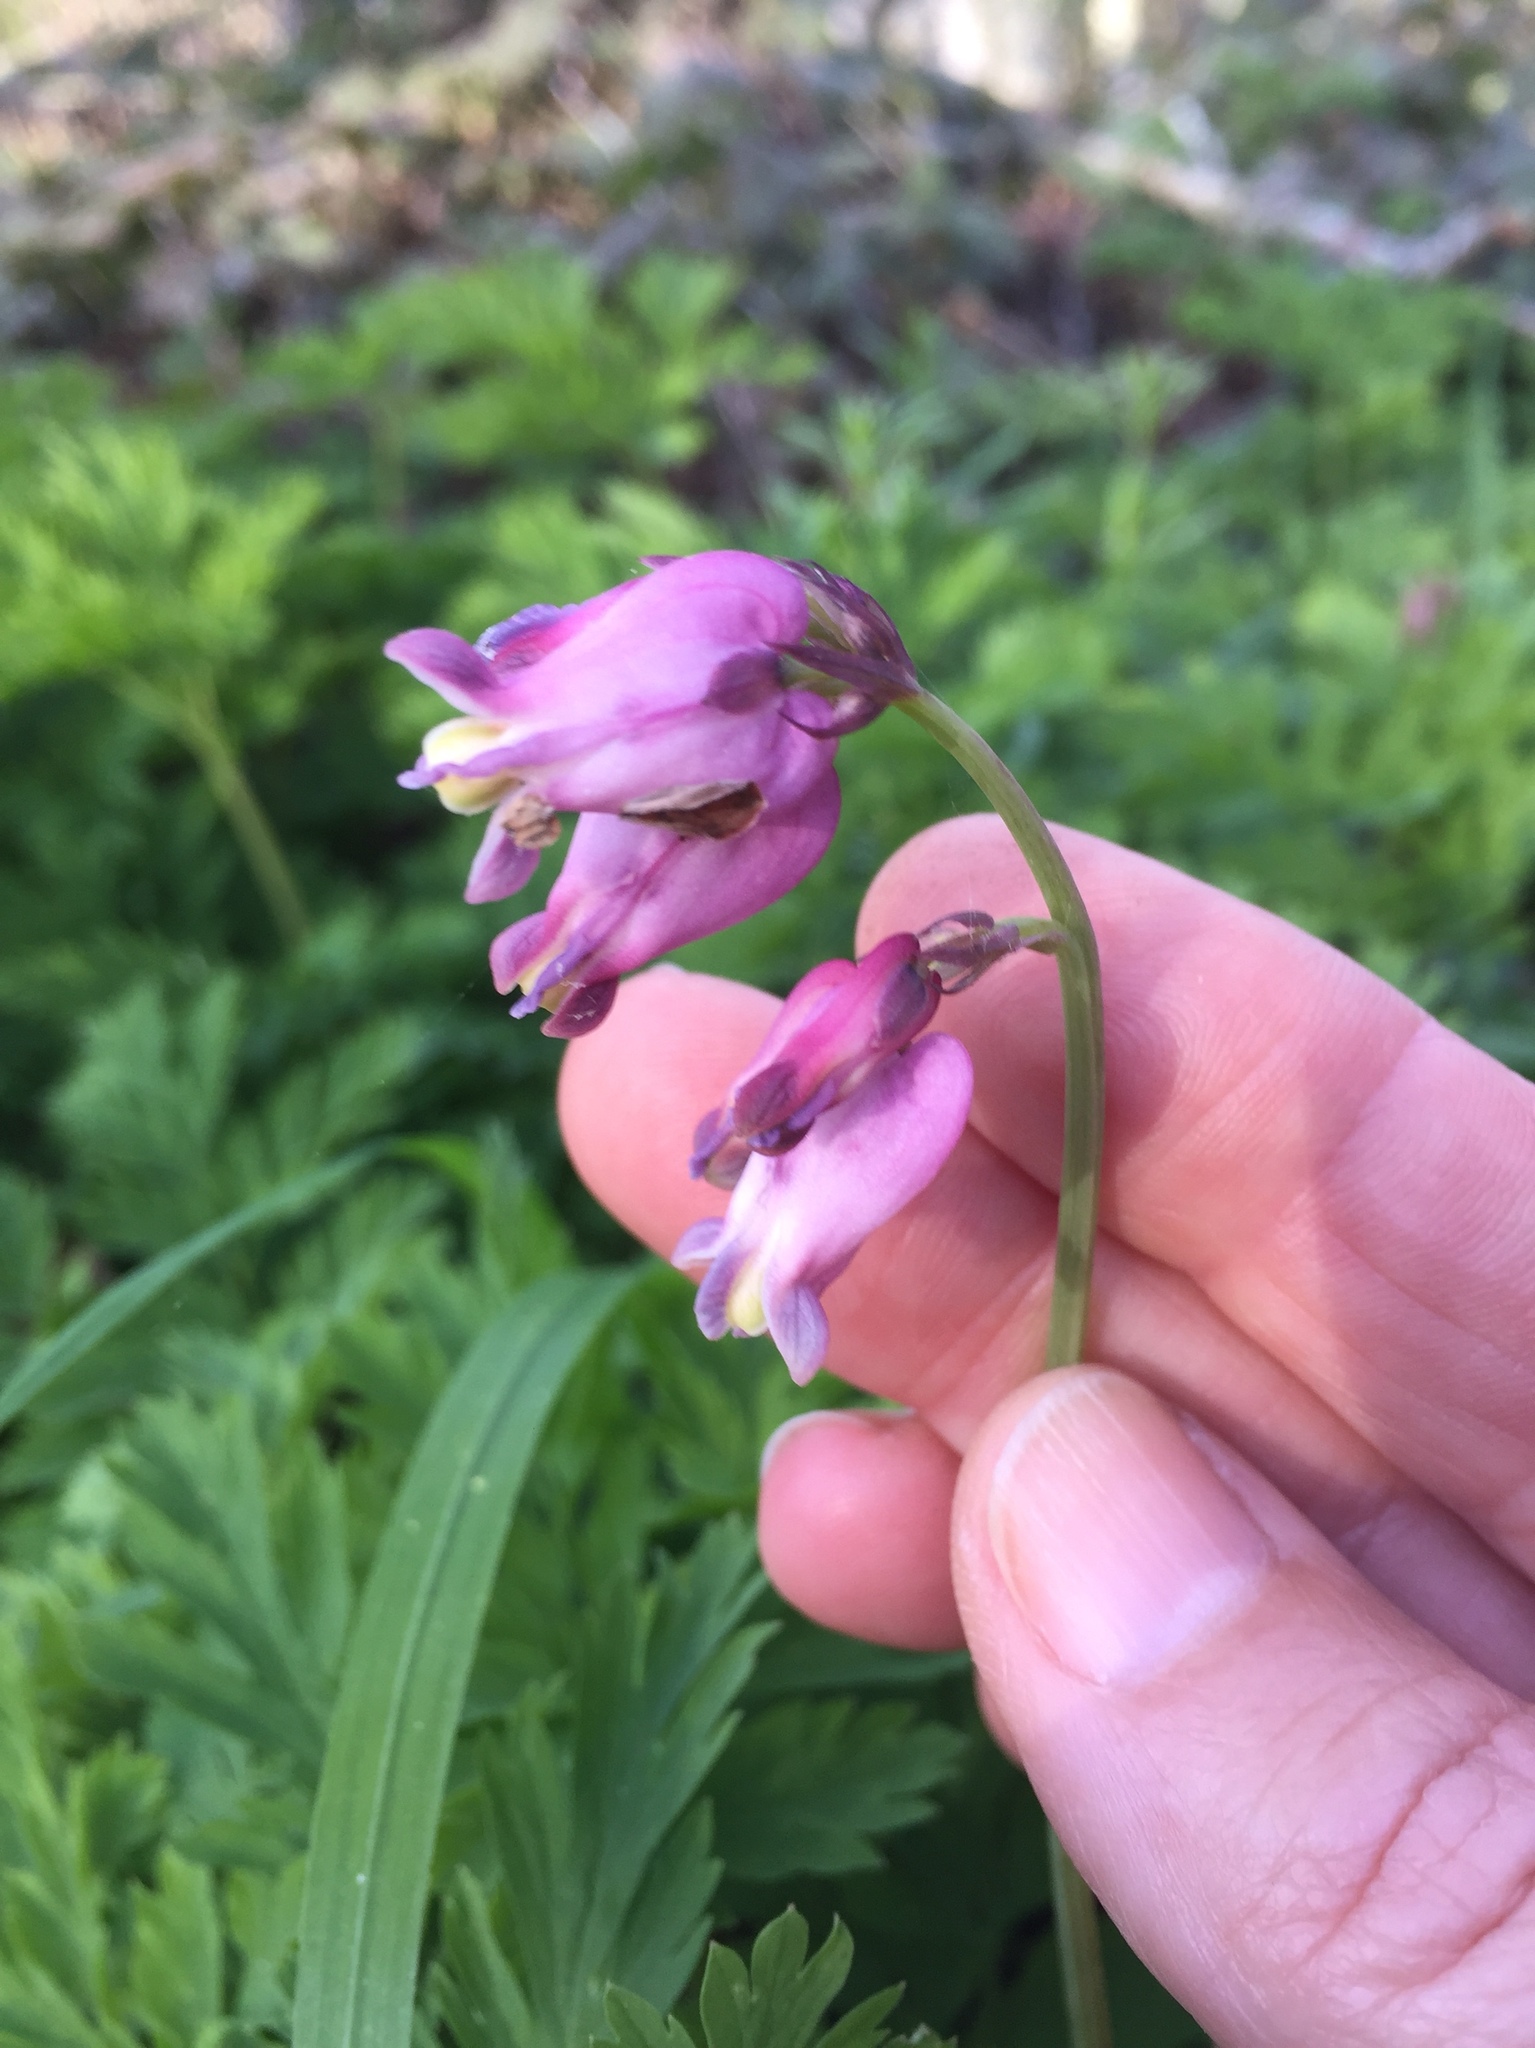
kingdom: Plantae
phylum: Tracheophyta
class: Magnoliopsida
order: Ranunculales
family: Papaveraceae
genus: Dicentra
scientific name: Dicentra formosa
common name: Bleeding-heart
